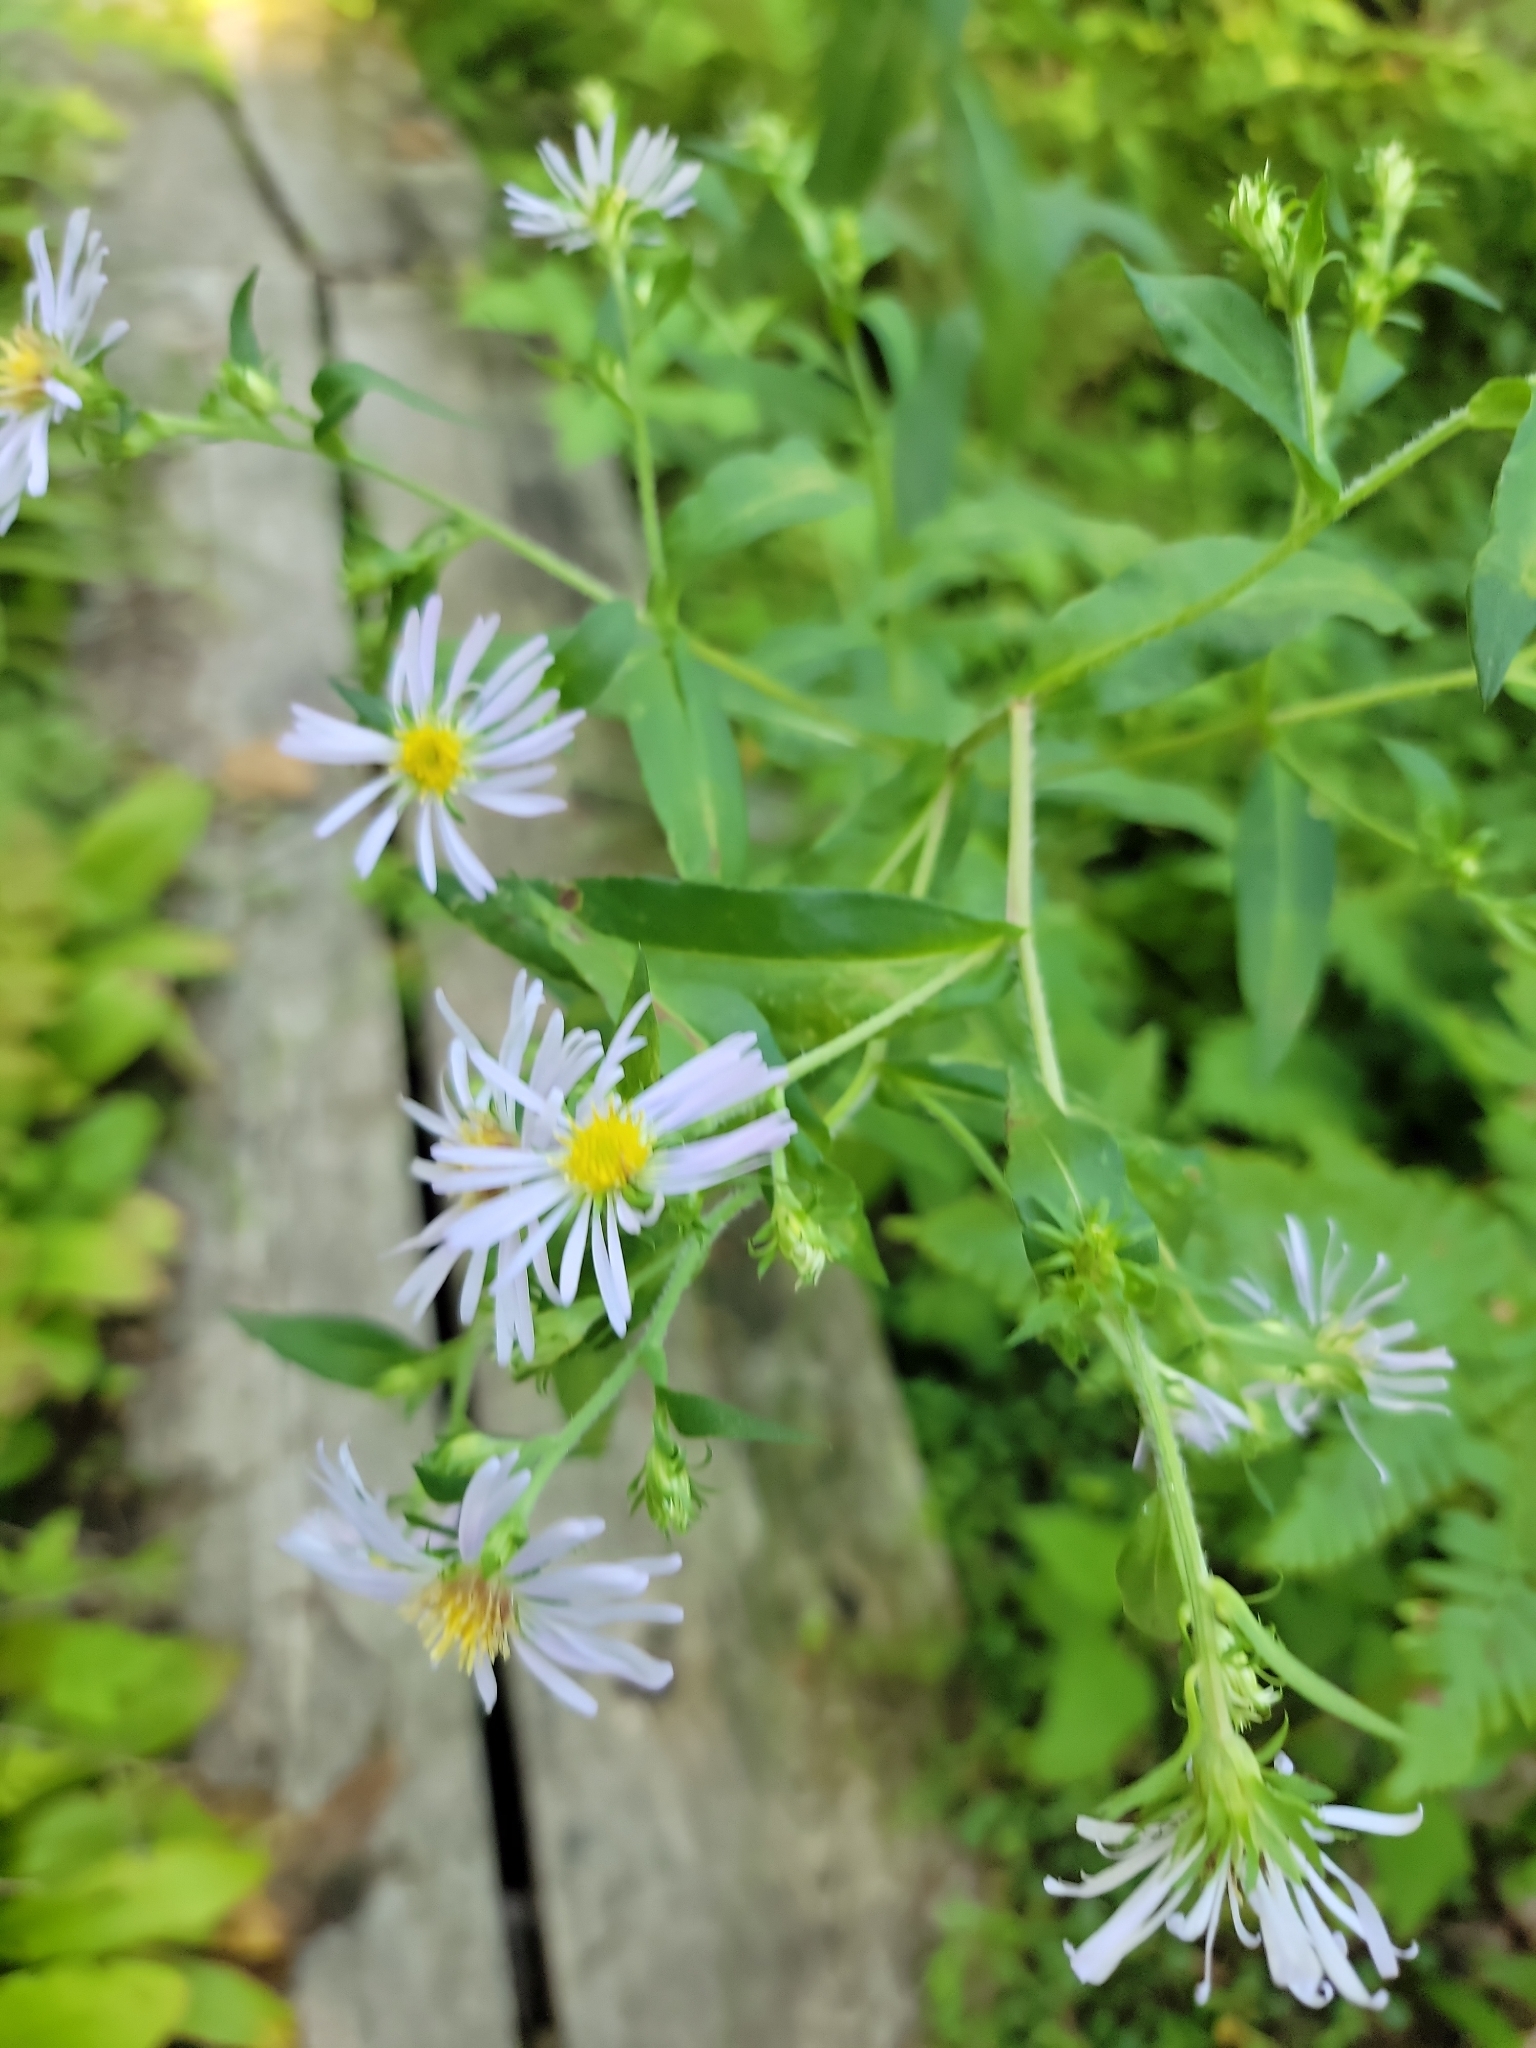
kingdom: Plantae
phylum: Tracheophyta
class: Magnoliopsida
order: Asterales
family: Asteraceae
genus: Symphyotrichum
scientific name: Symphyotrichum puniceum
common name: Bog aster
